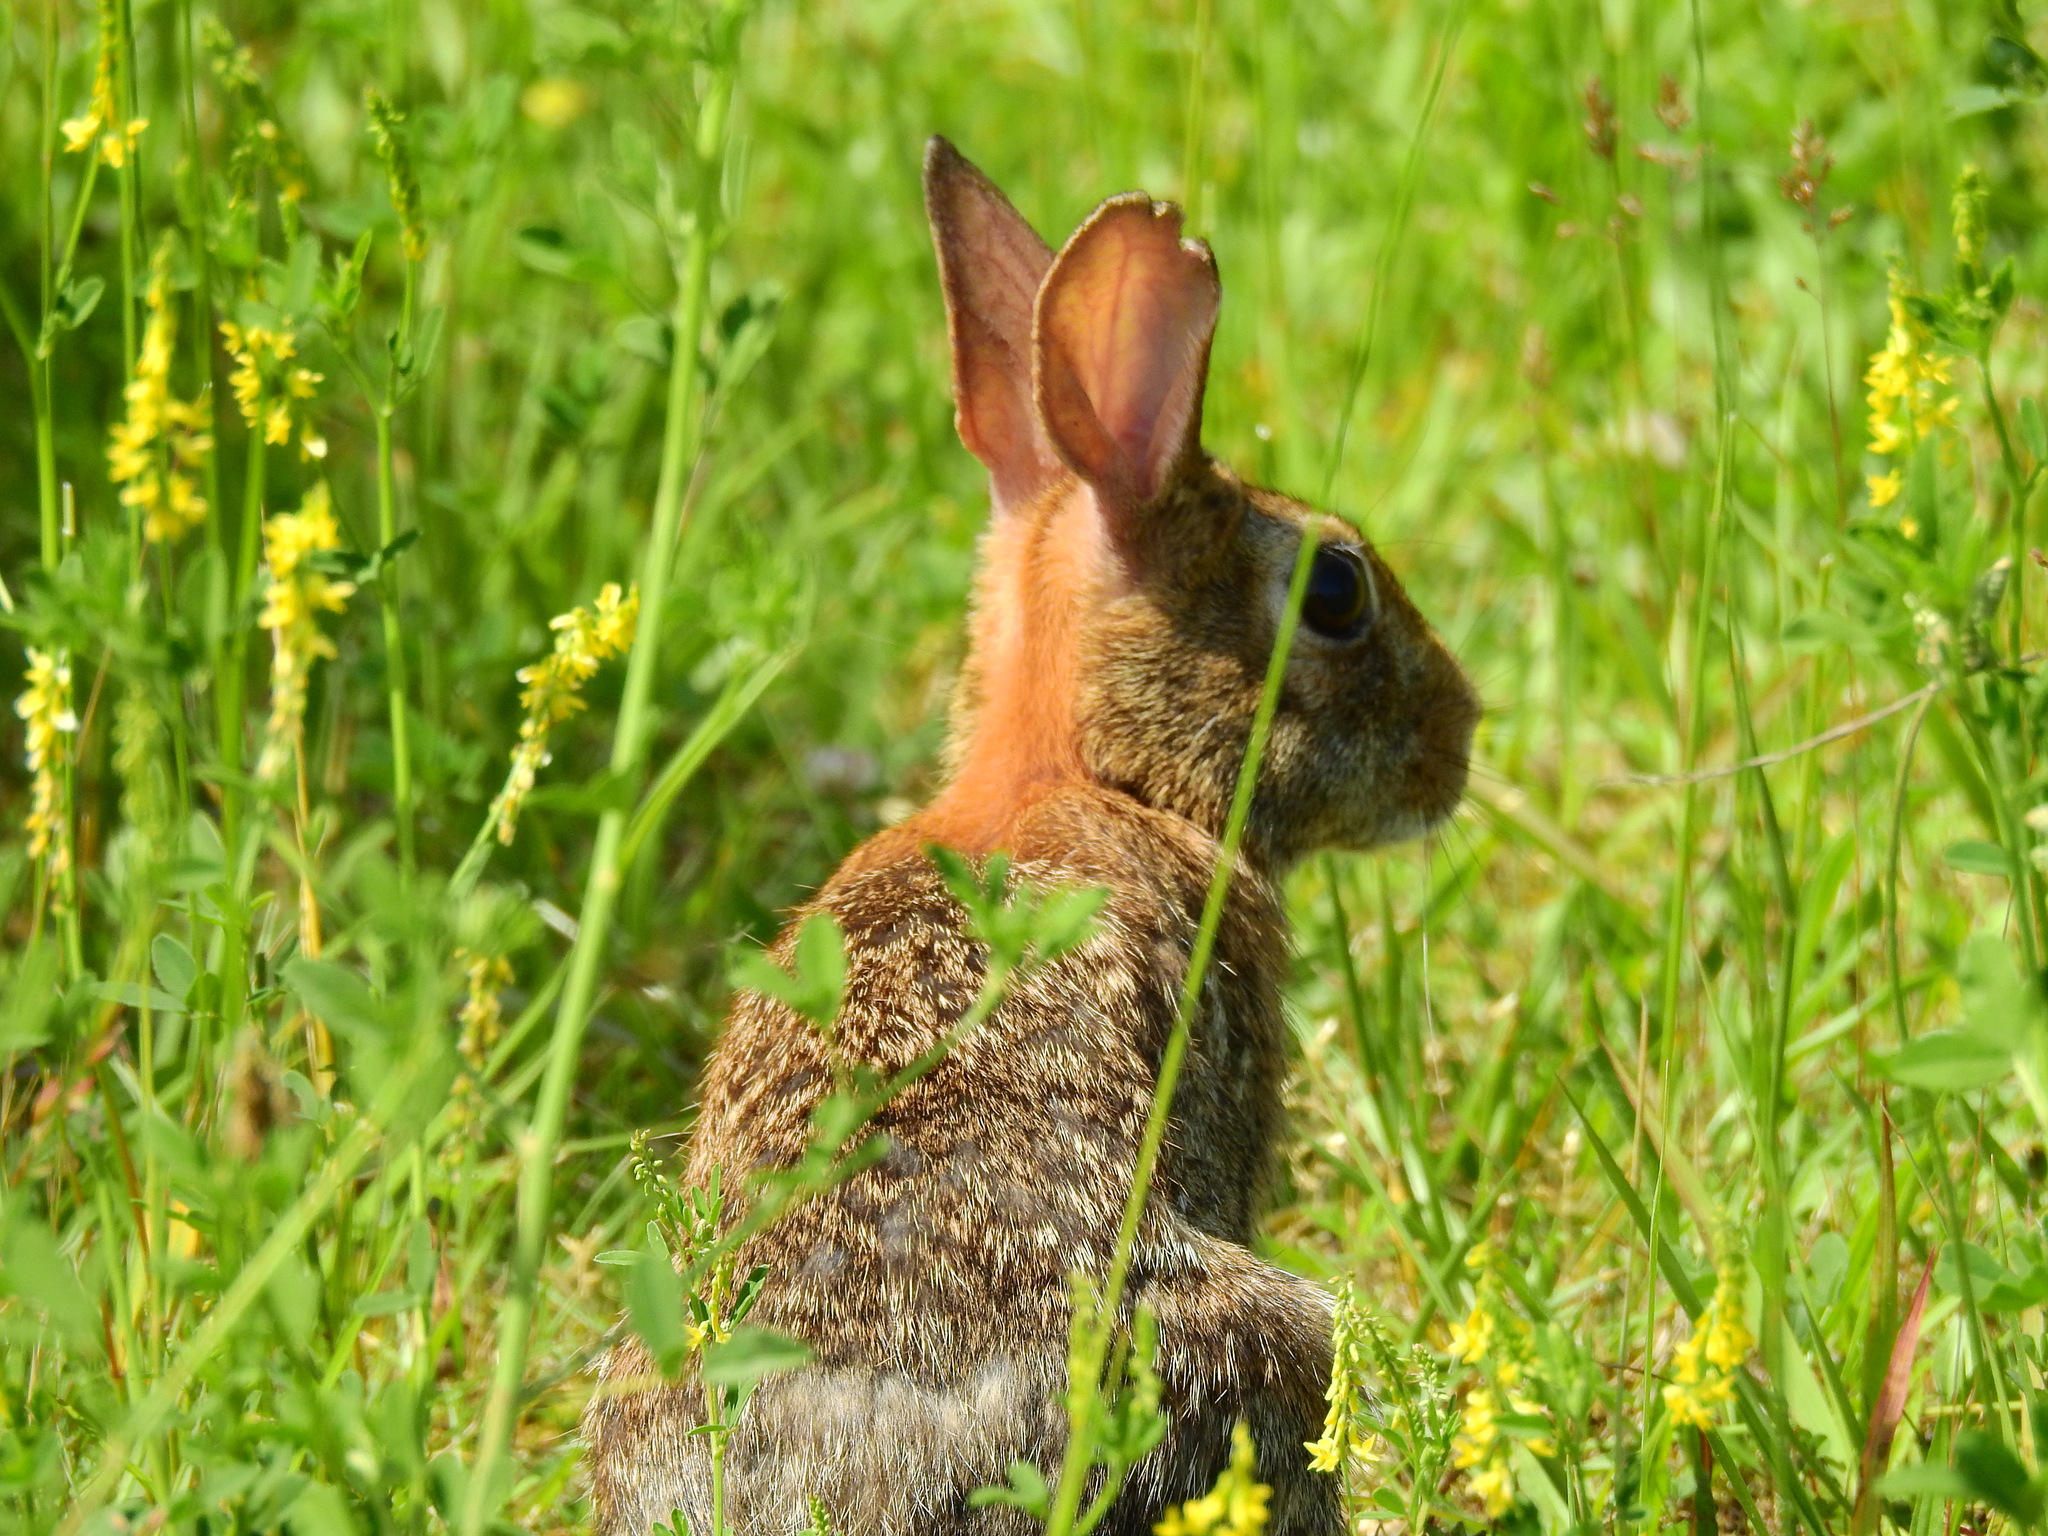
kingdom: Animalia
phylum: Chordata
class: Mammalia
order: Lagomorpha
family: Leporidae
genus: Sylvilagus
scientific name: Sylvilagus floridanus
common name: Eastern cottontail
